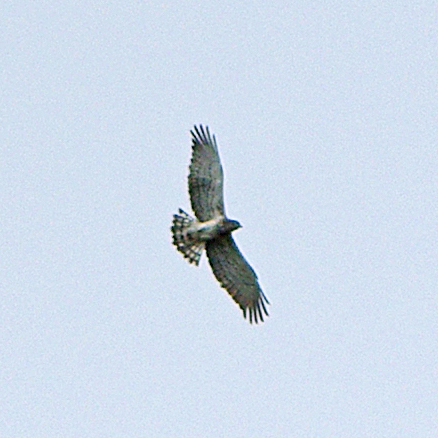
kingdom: Animalia
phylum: Chordata
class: Aves
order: Accipitriformes
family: Accipitridae
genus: Circaetus
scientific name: Circaetus gallicus
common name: Short-toed snake eagle
